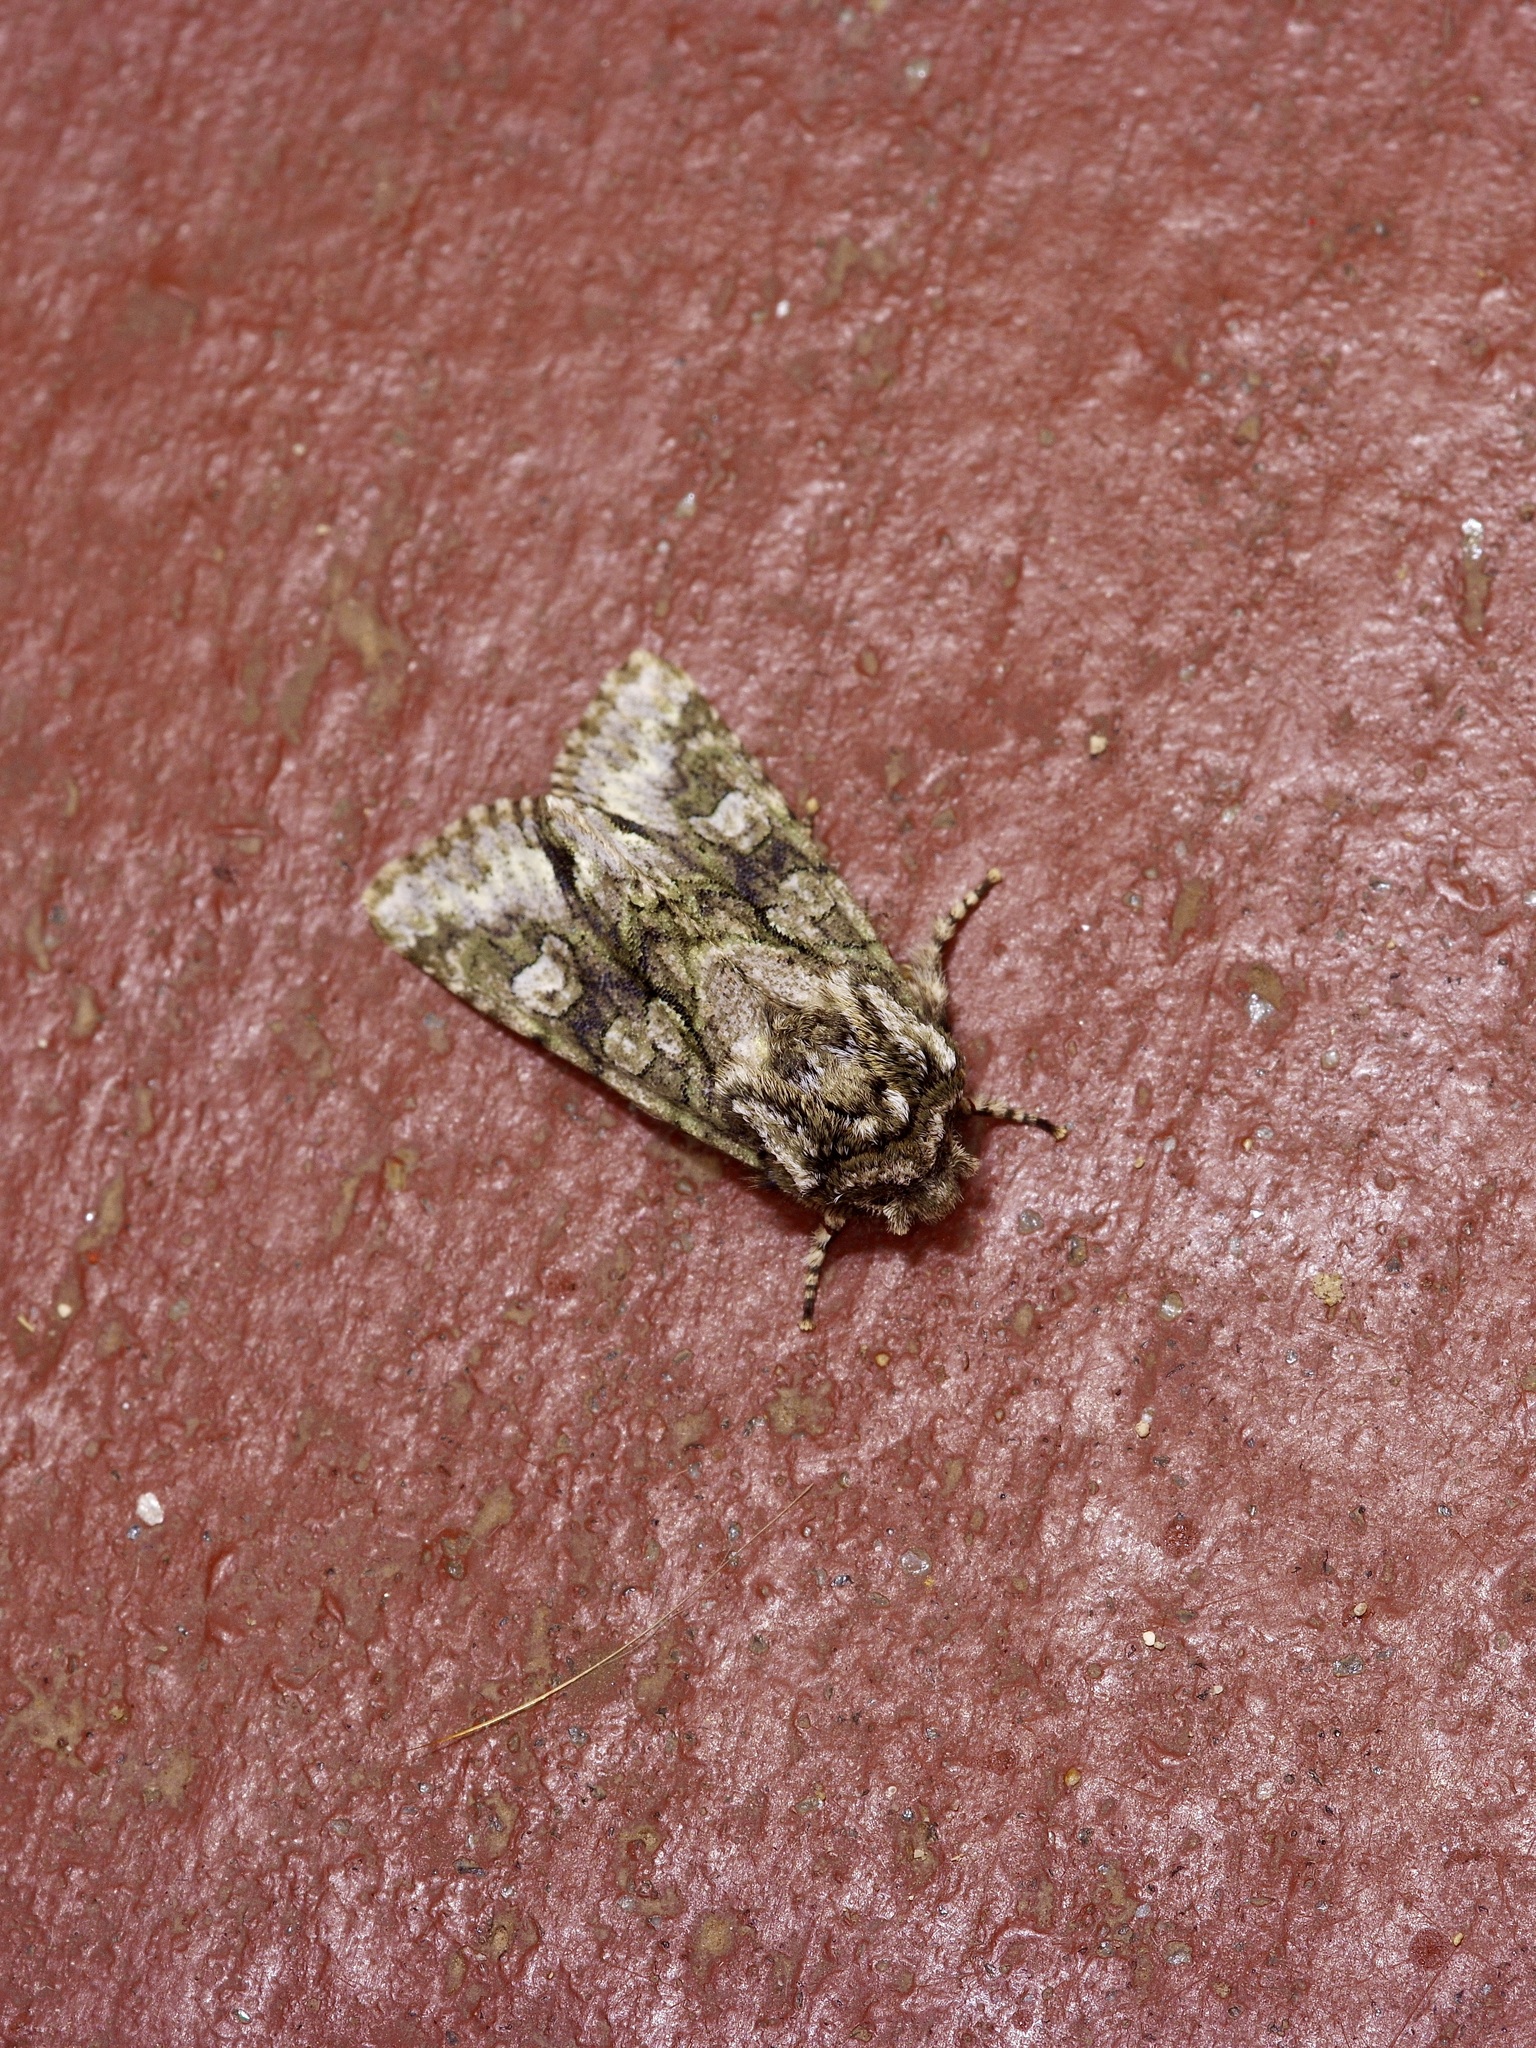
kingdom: Animalia
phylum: Arthropoda
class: Insecta
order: Lepidoptera
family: Noctuidae
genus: Psaphida
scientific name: Psaphida resumens
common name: Figure-eight sallow
